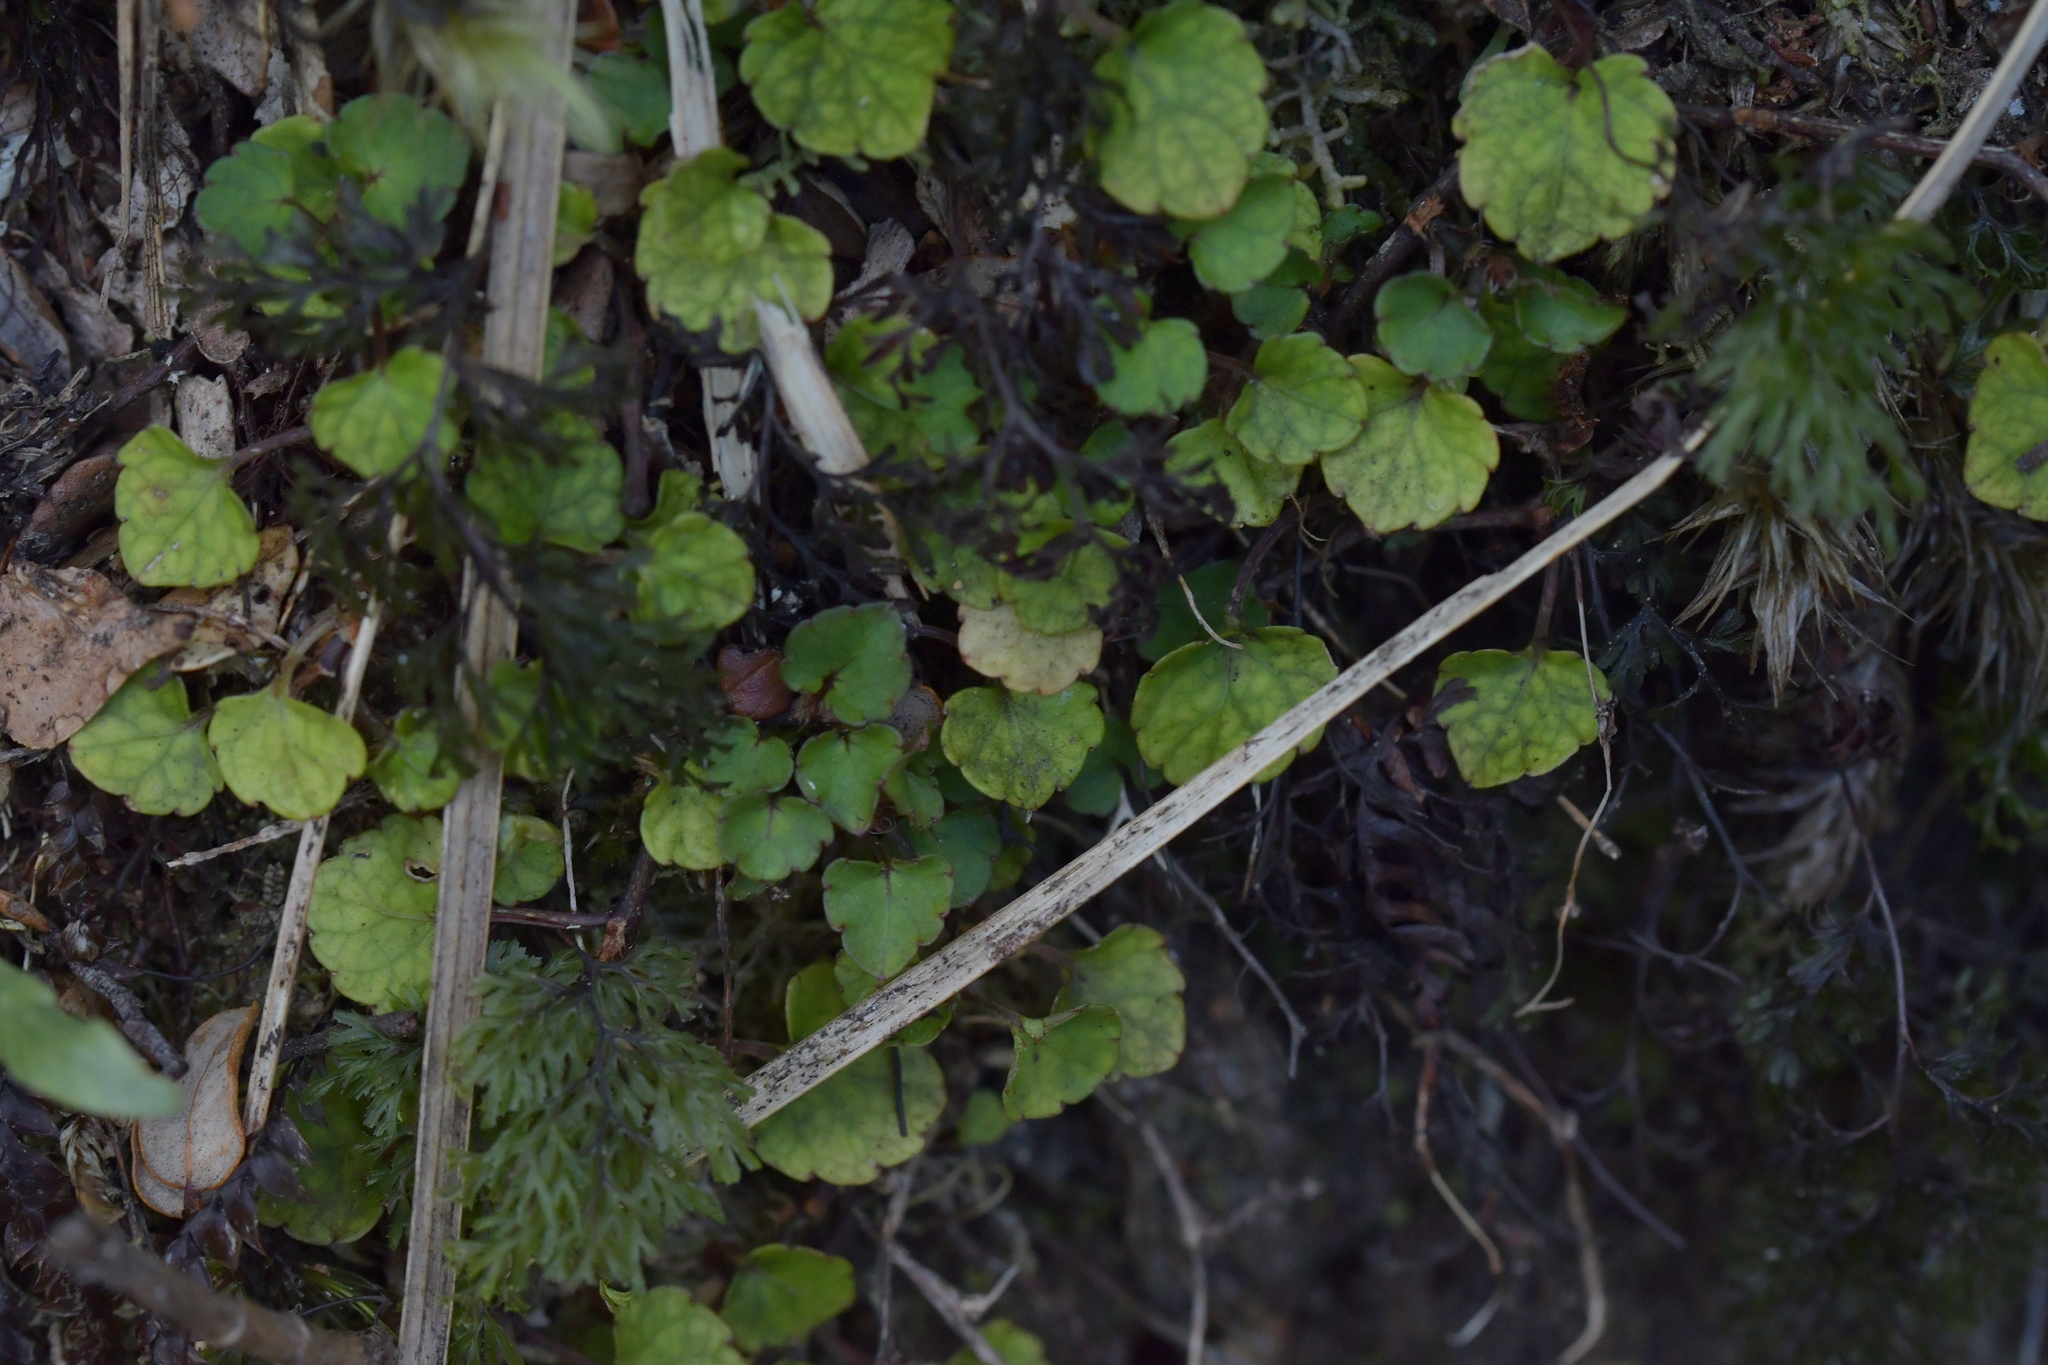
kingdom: Plantae
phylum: Tracheophyta
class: Magnoliopsida
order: Malpighiales
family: Violaceae
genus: Viola
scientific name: Viola filicaulis
